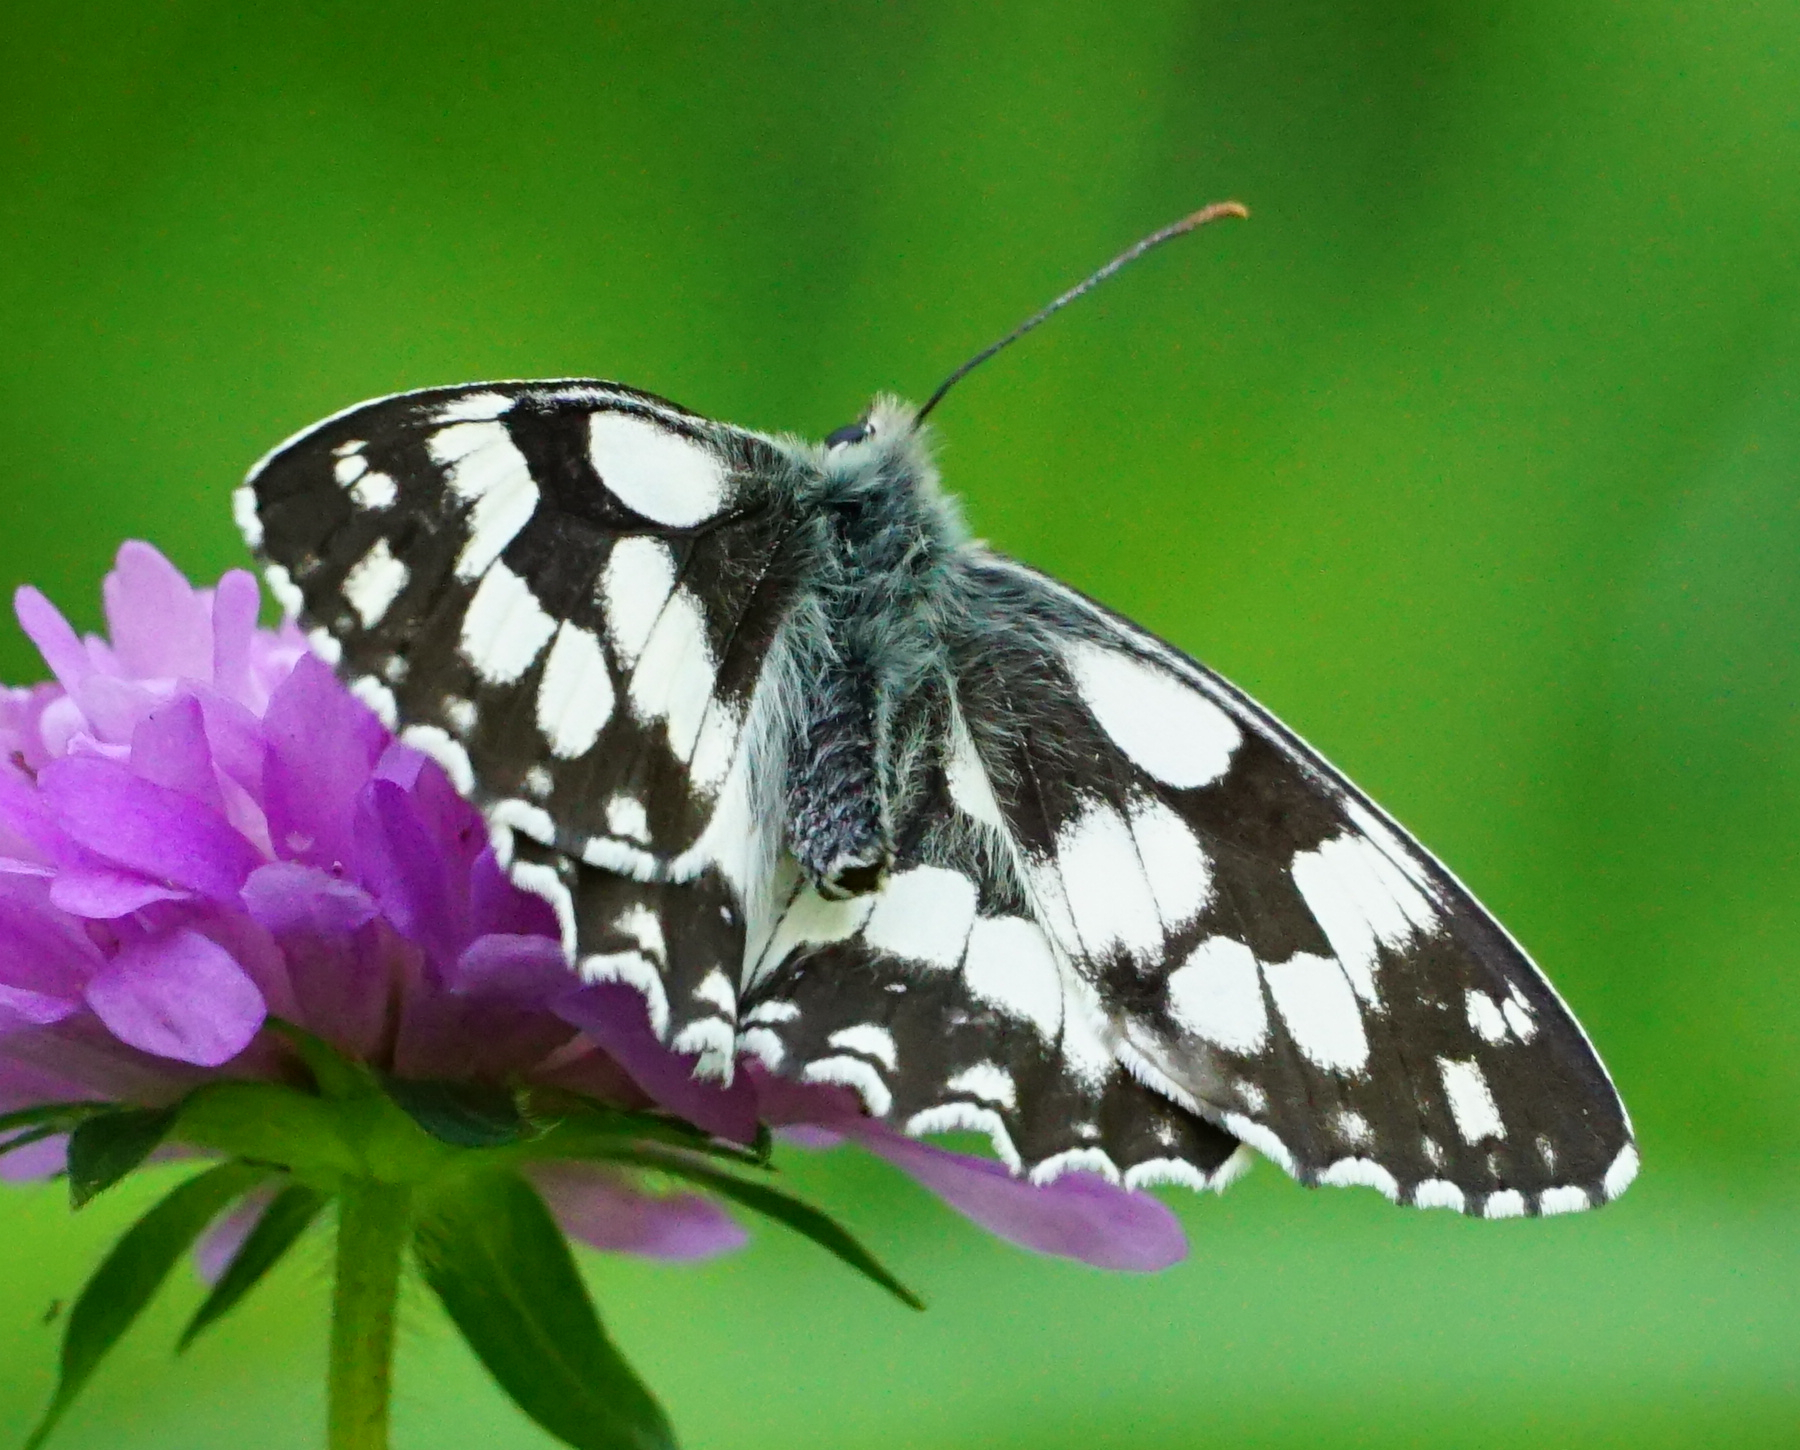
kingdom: Animalia
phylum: Arthropoda
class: Insecta
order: Lepidoptera
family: Nymphalidae
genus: Melanargia
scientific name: Melanargia galathea
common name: Marbled white
